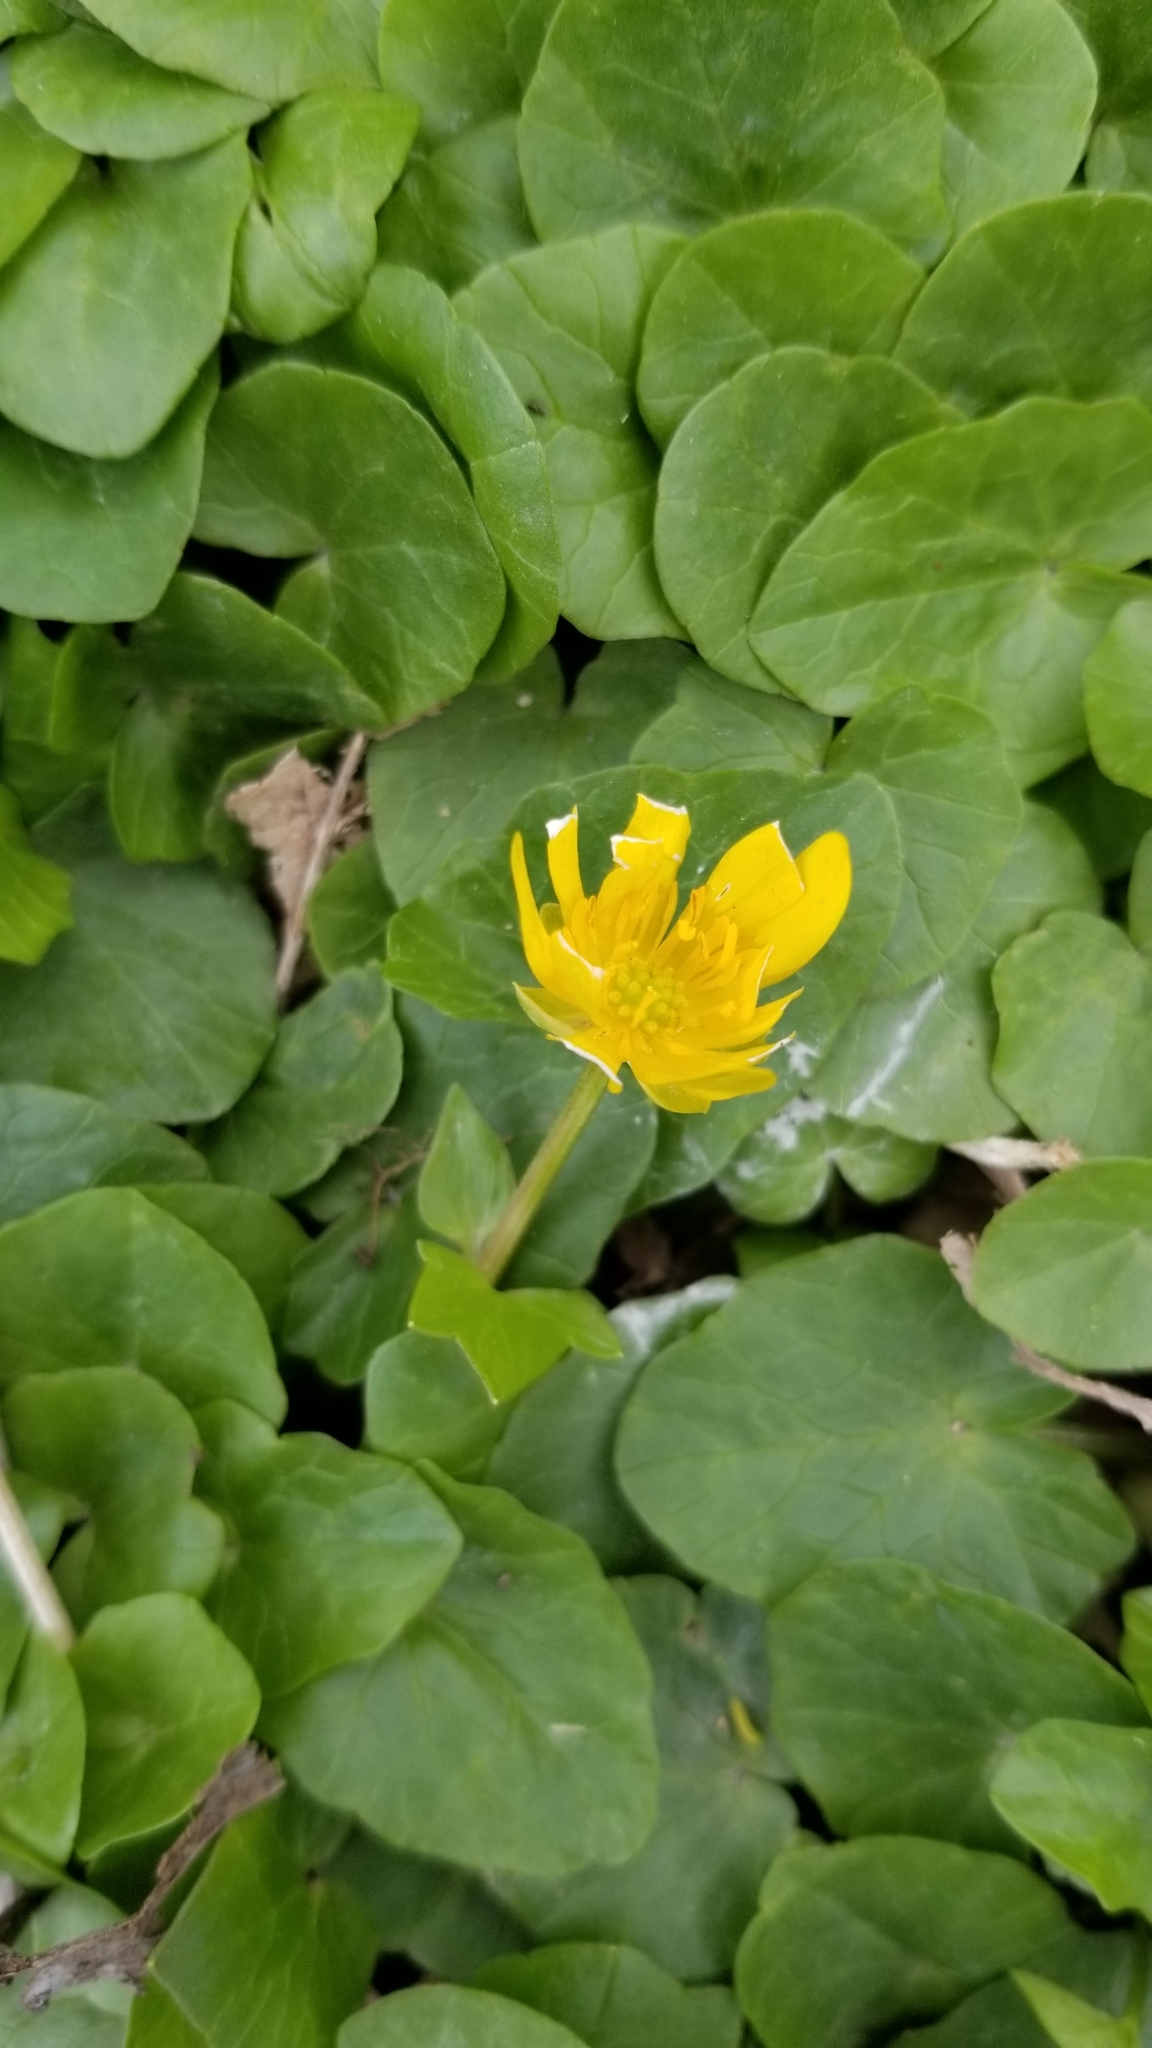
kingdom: Plantae
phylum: Tracheophyta
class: Magnoliopsida
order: Ranunculales
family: Ranunculaceae
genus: Ficaria
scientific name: Ficaria verna
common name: Lesser celandine
